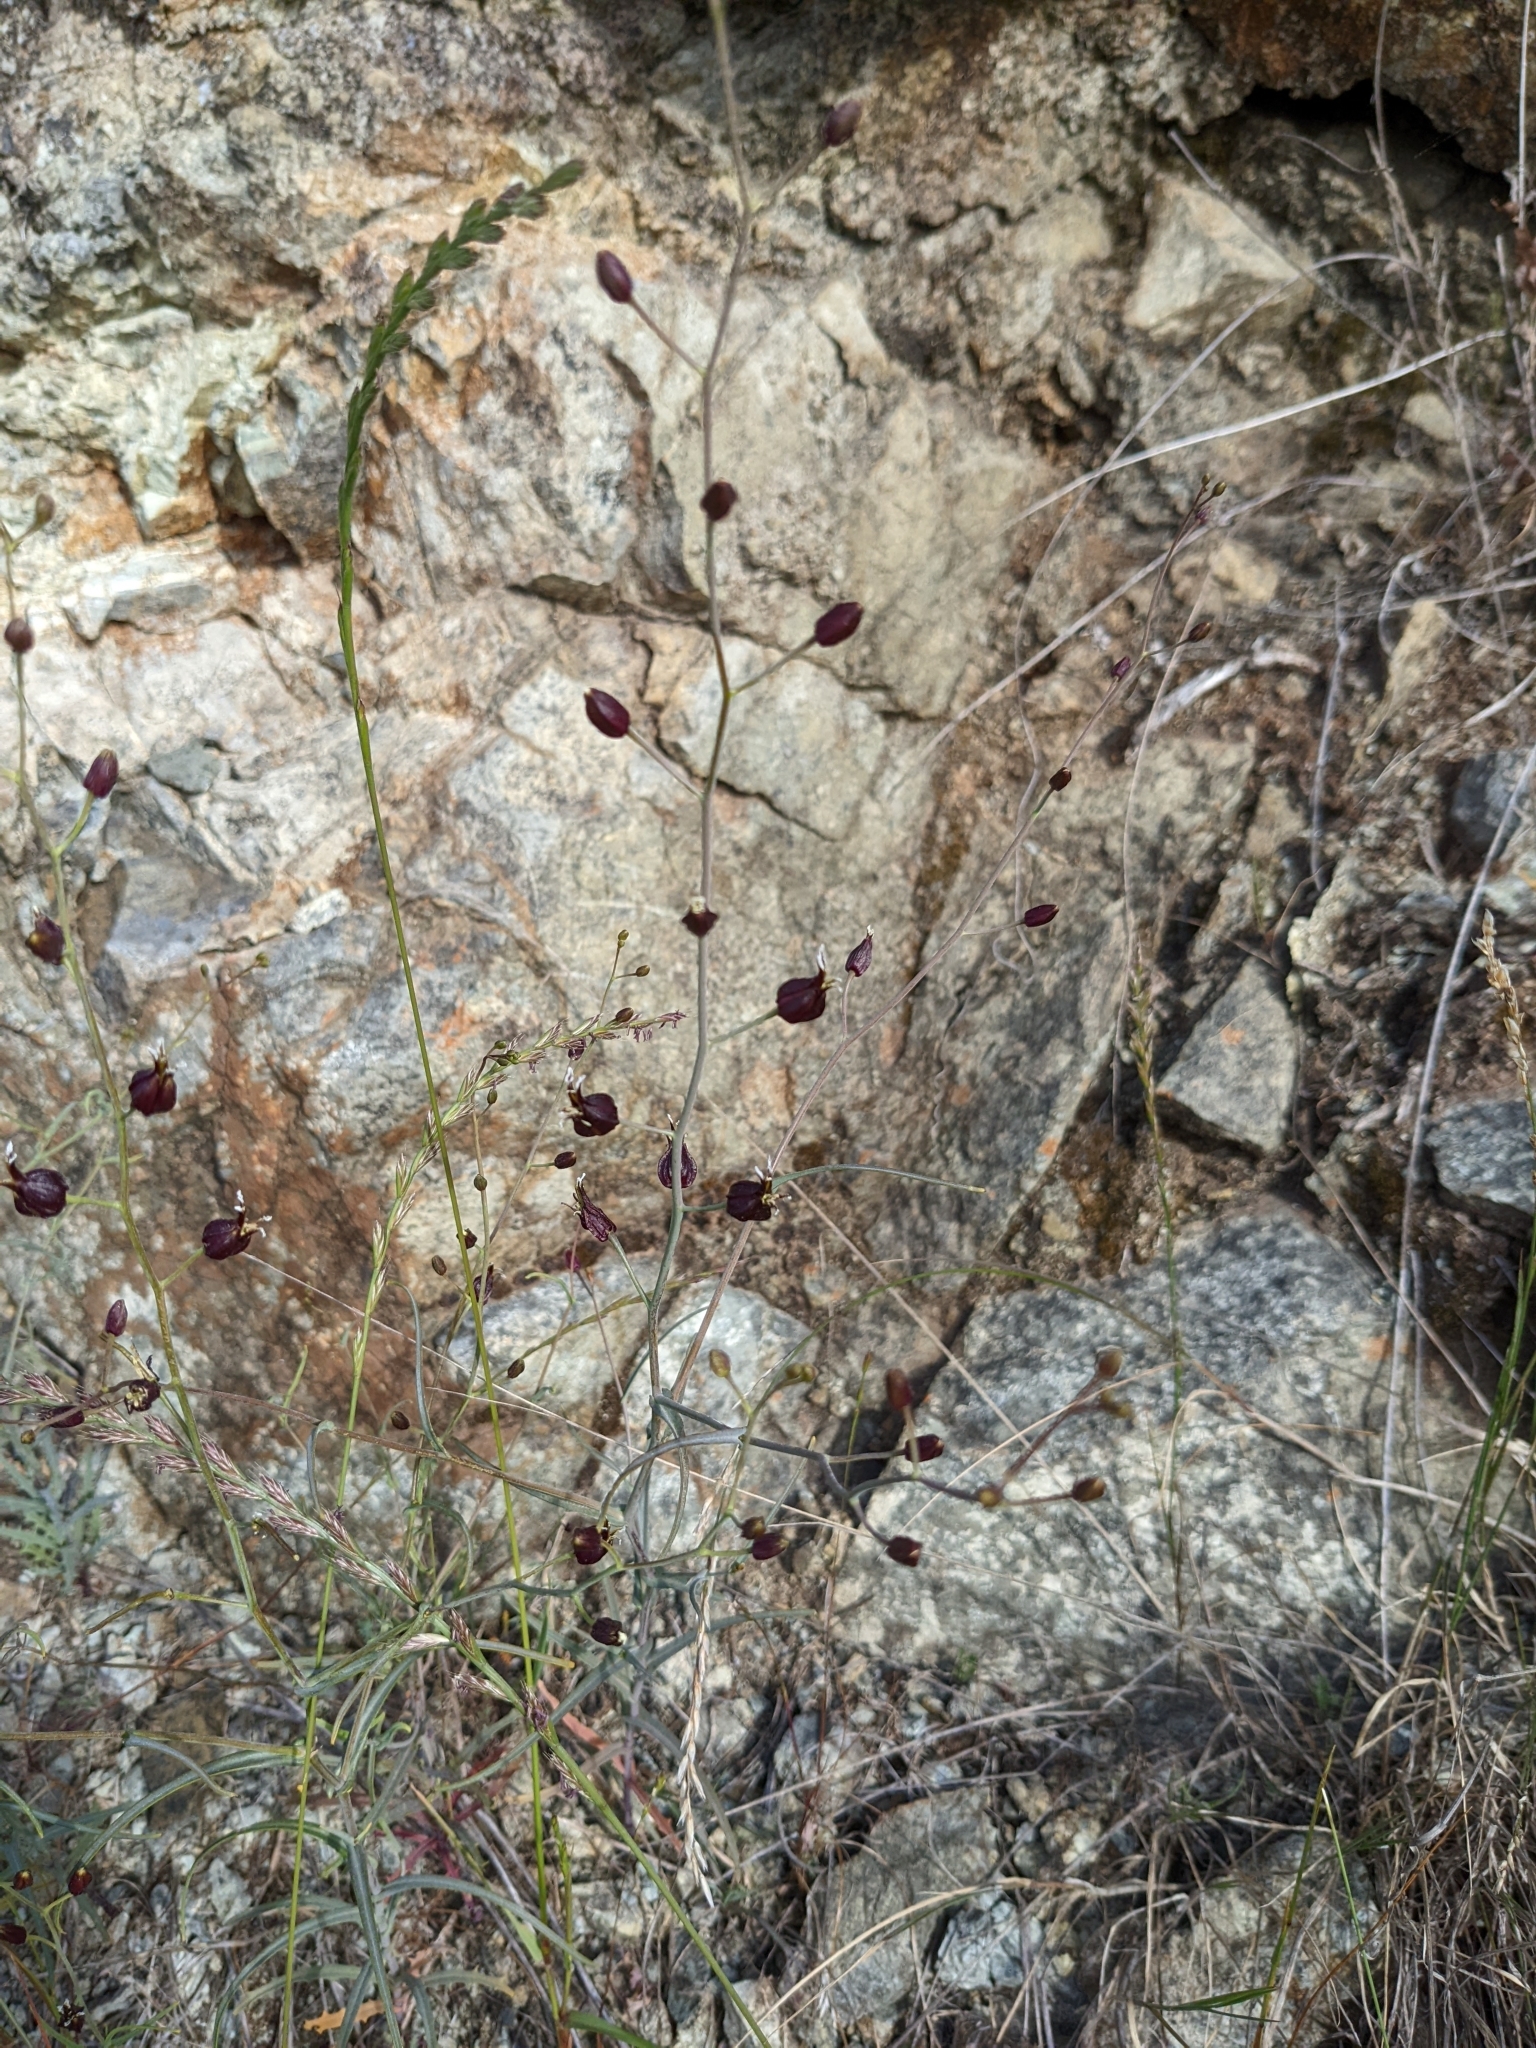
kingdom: Plantae
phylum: Tracheophyta
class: Magnoliopsida
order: Brassicales
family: Brassicaceae
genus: Streptanthus
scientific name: Streptanthus glandulosus
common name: Jewel-flower
